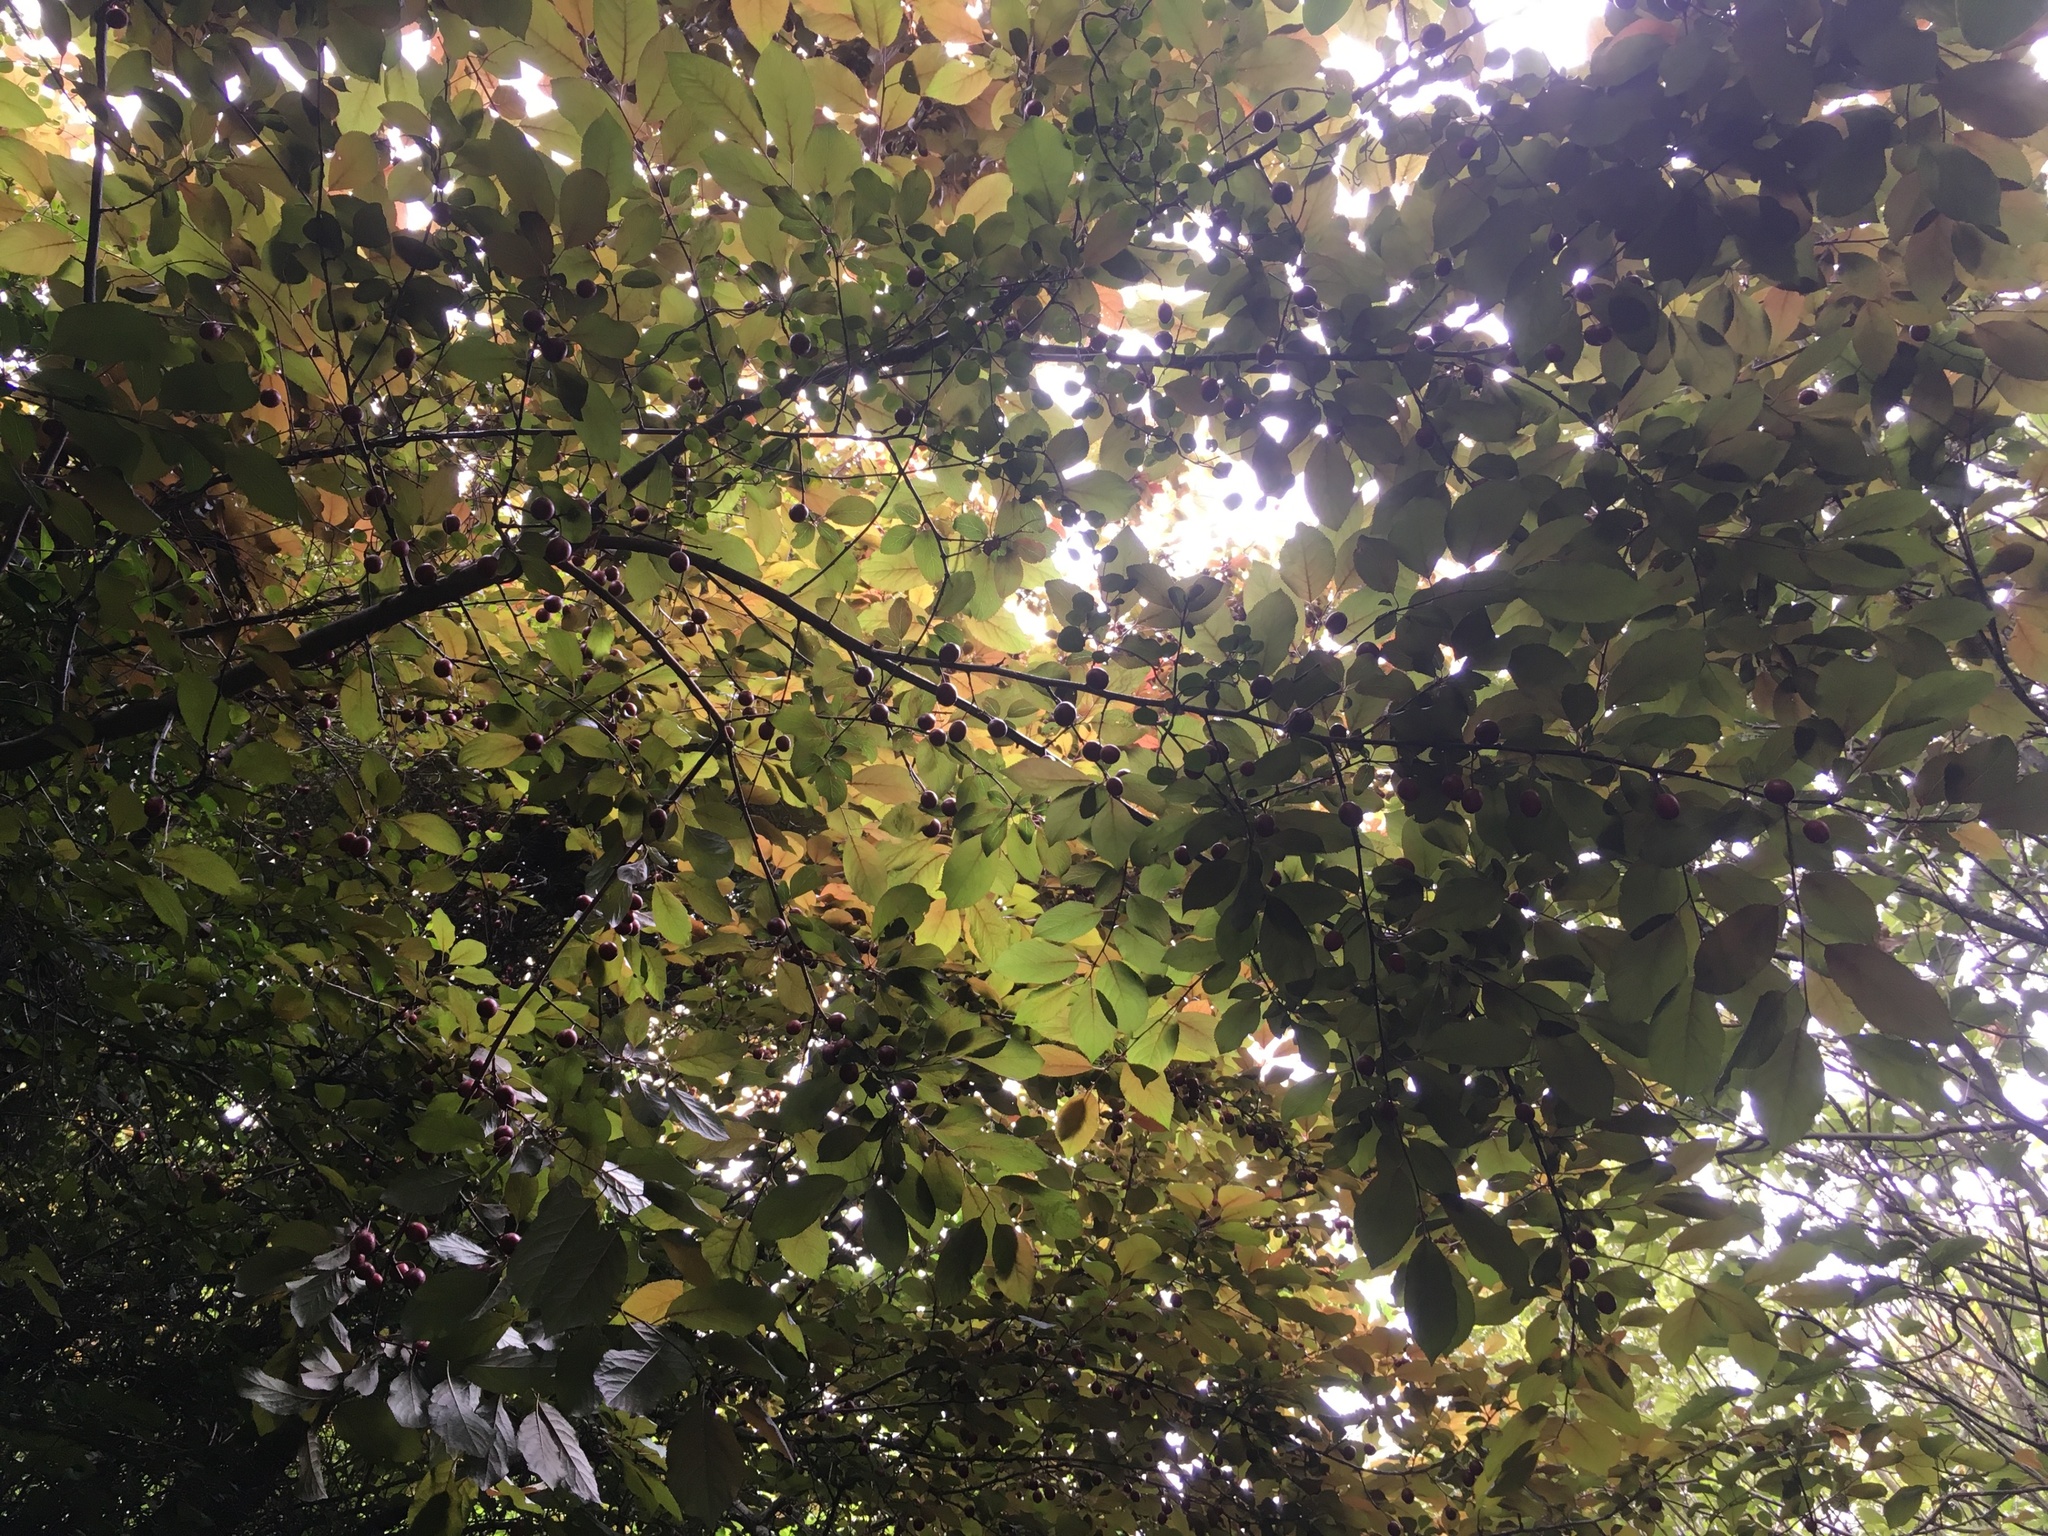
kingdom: Plantae
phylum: Tracheophyta
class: Magnoliopsida
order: Rosales
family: Rosaceae
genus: Prunus
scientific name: Prunus cerasifera
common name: Cherry plum
